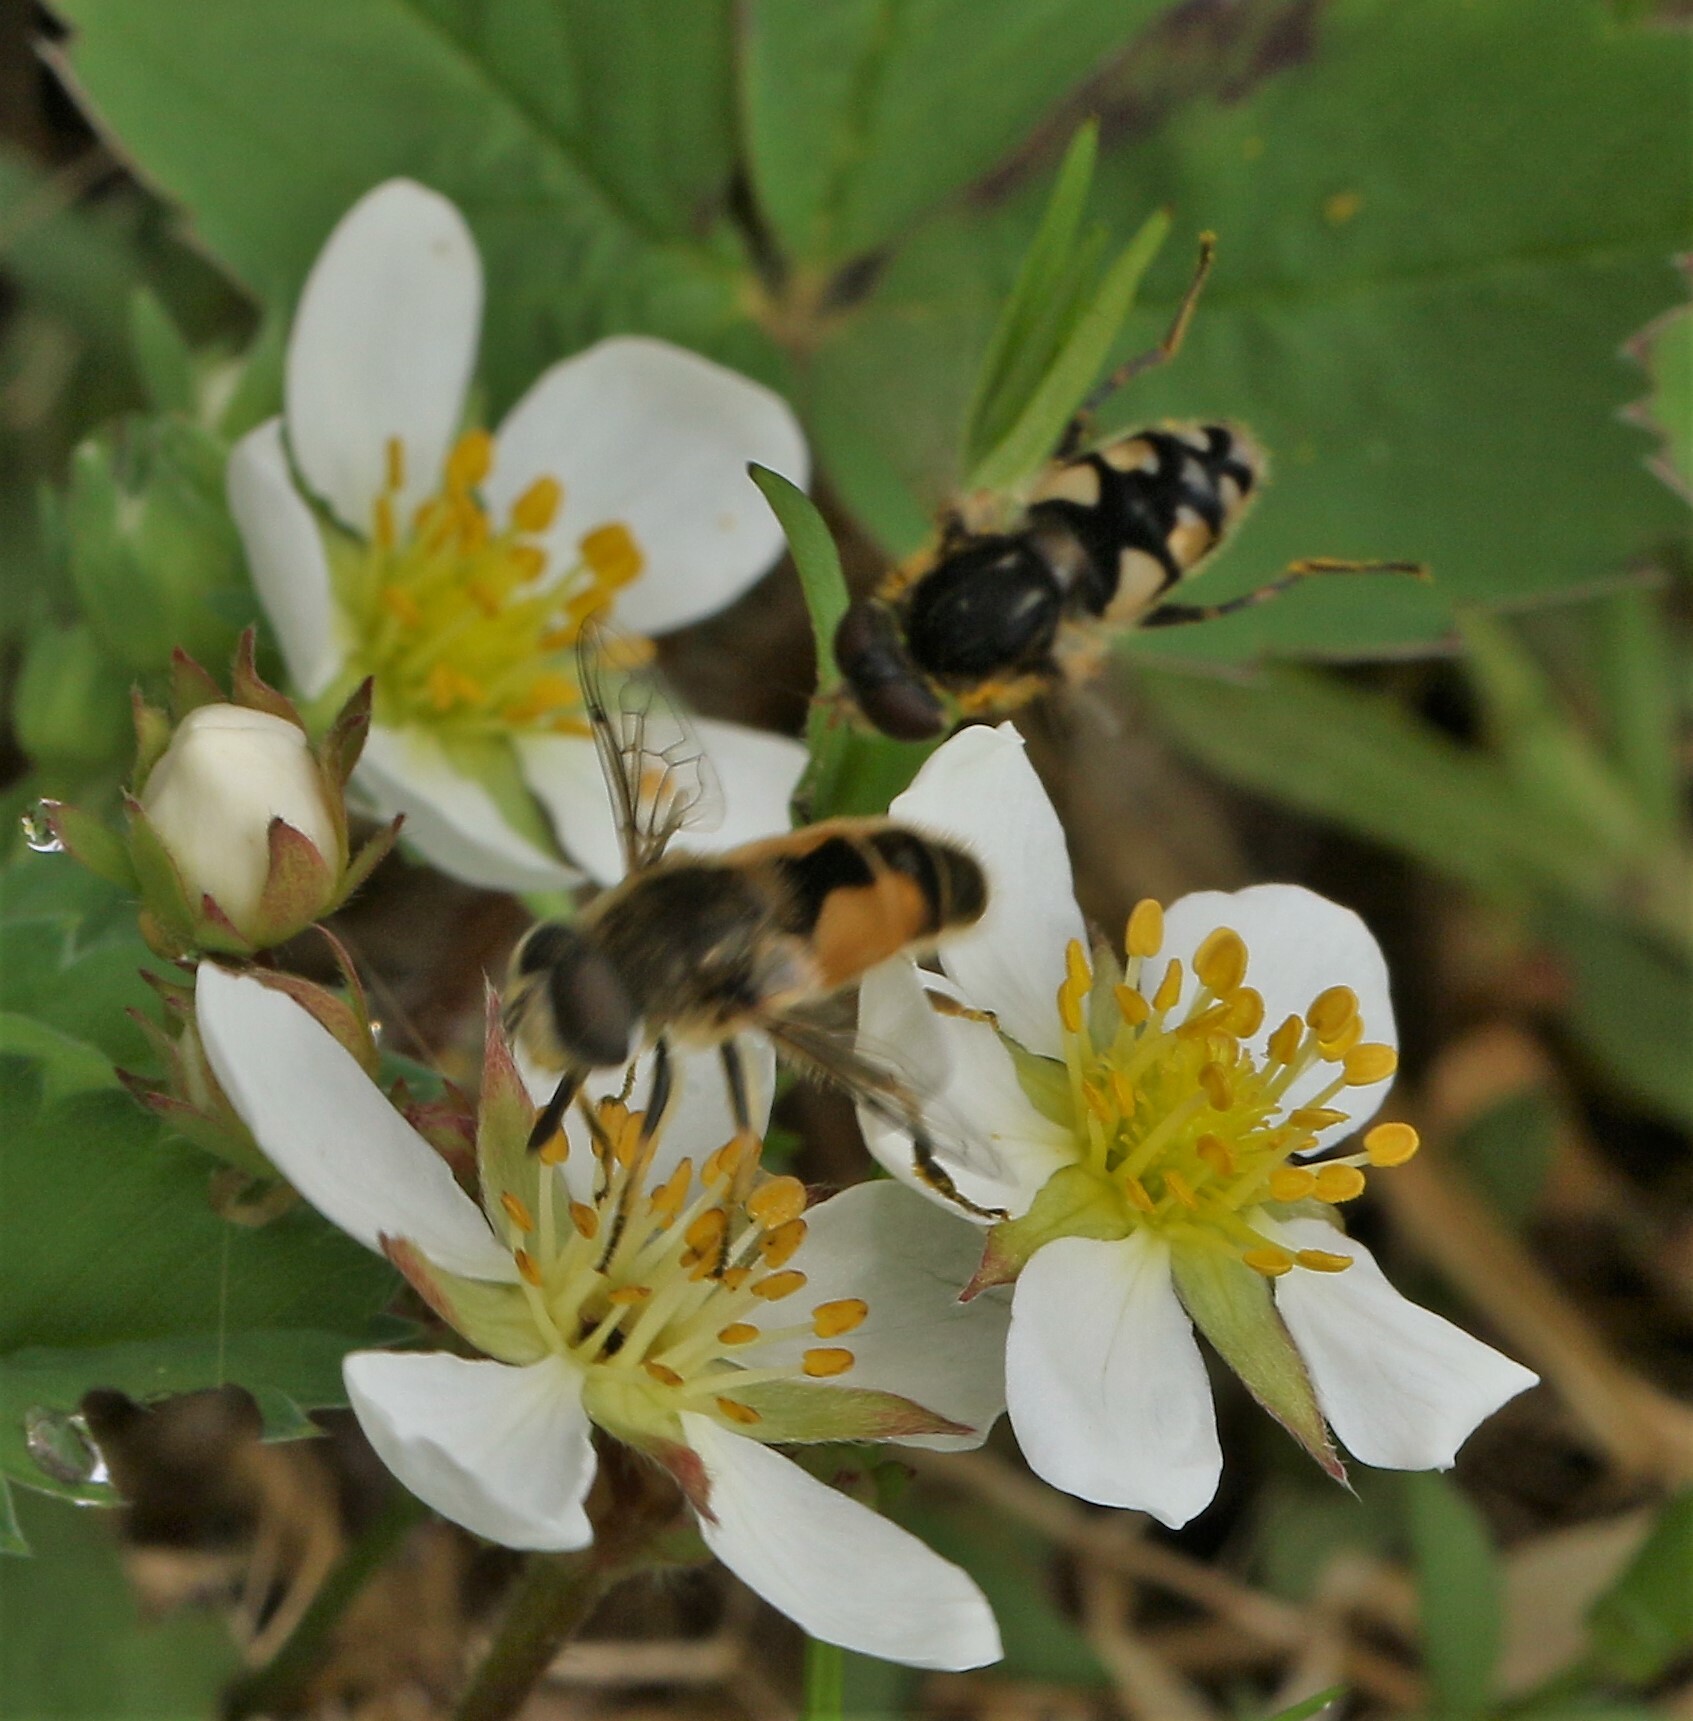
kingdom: Animalia
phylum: Arthropoda
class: Insecta
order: Diptera
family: Syrphidae
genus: Eristalis
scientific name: Eristalis arbustorum
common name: Hover fly
